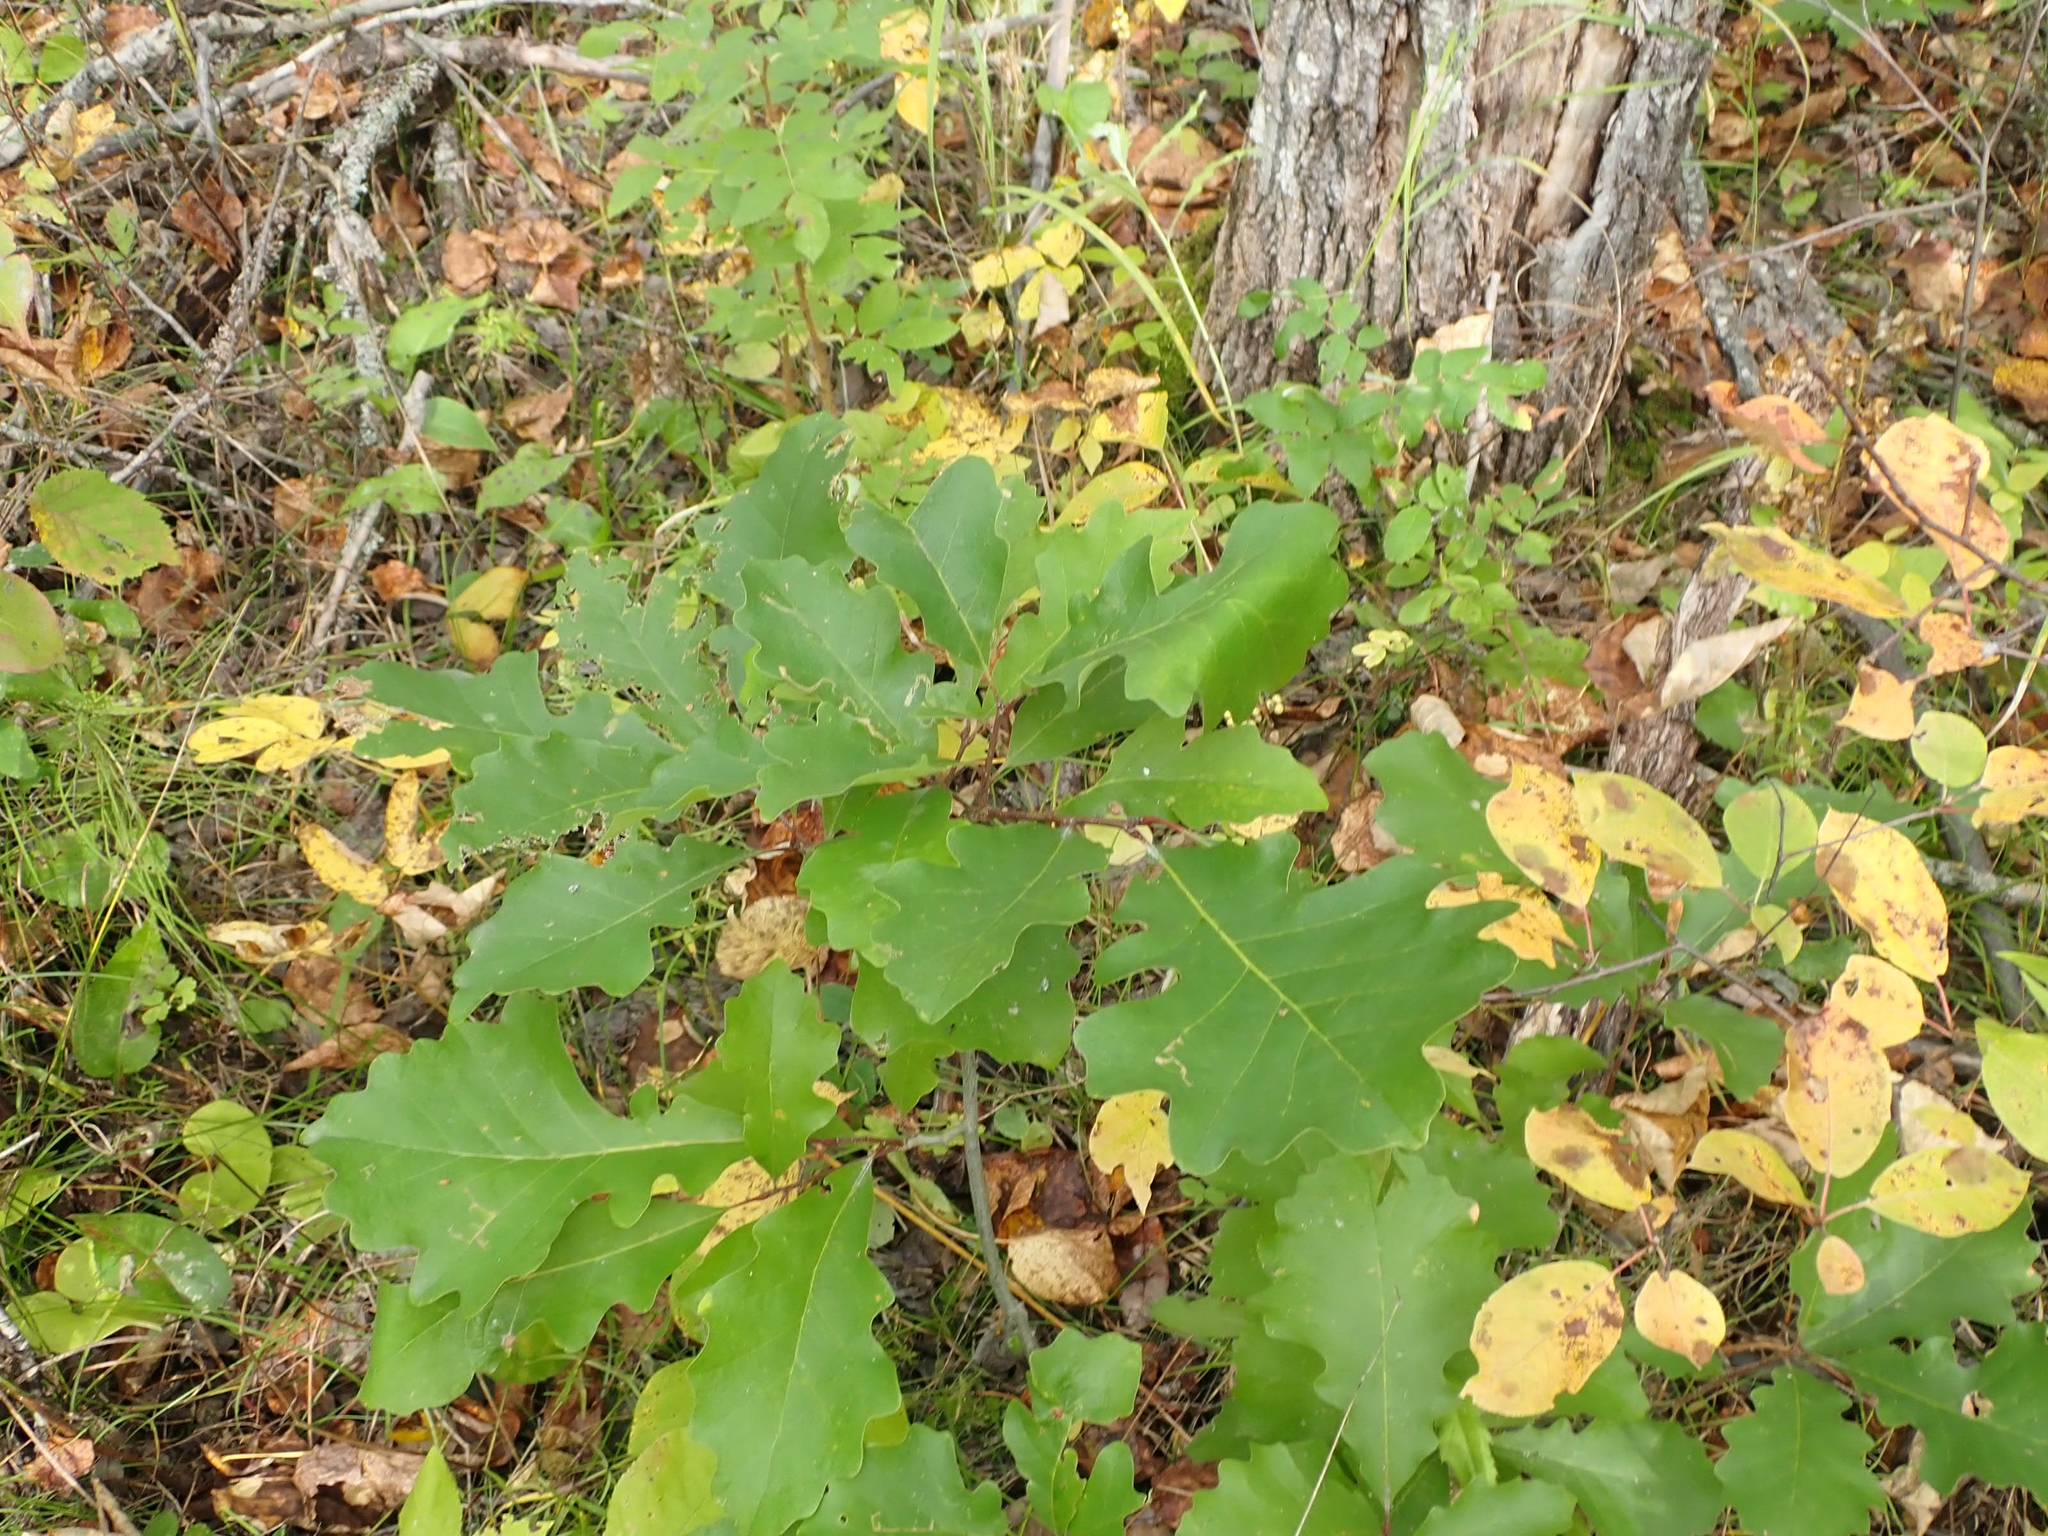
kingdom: Plantae
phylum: Tracheophyta
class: Magnoliopsida
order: Fagales
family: Fagaceae
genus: Quercus
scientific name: Quercus macrocarpa
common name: Bur oak
